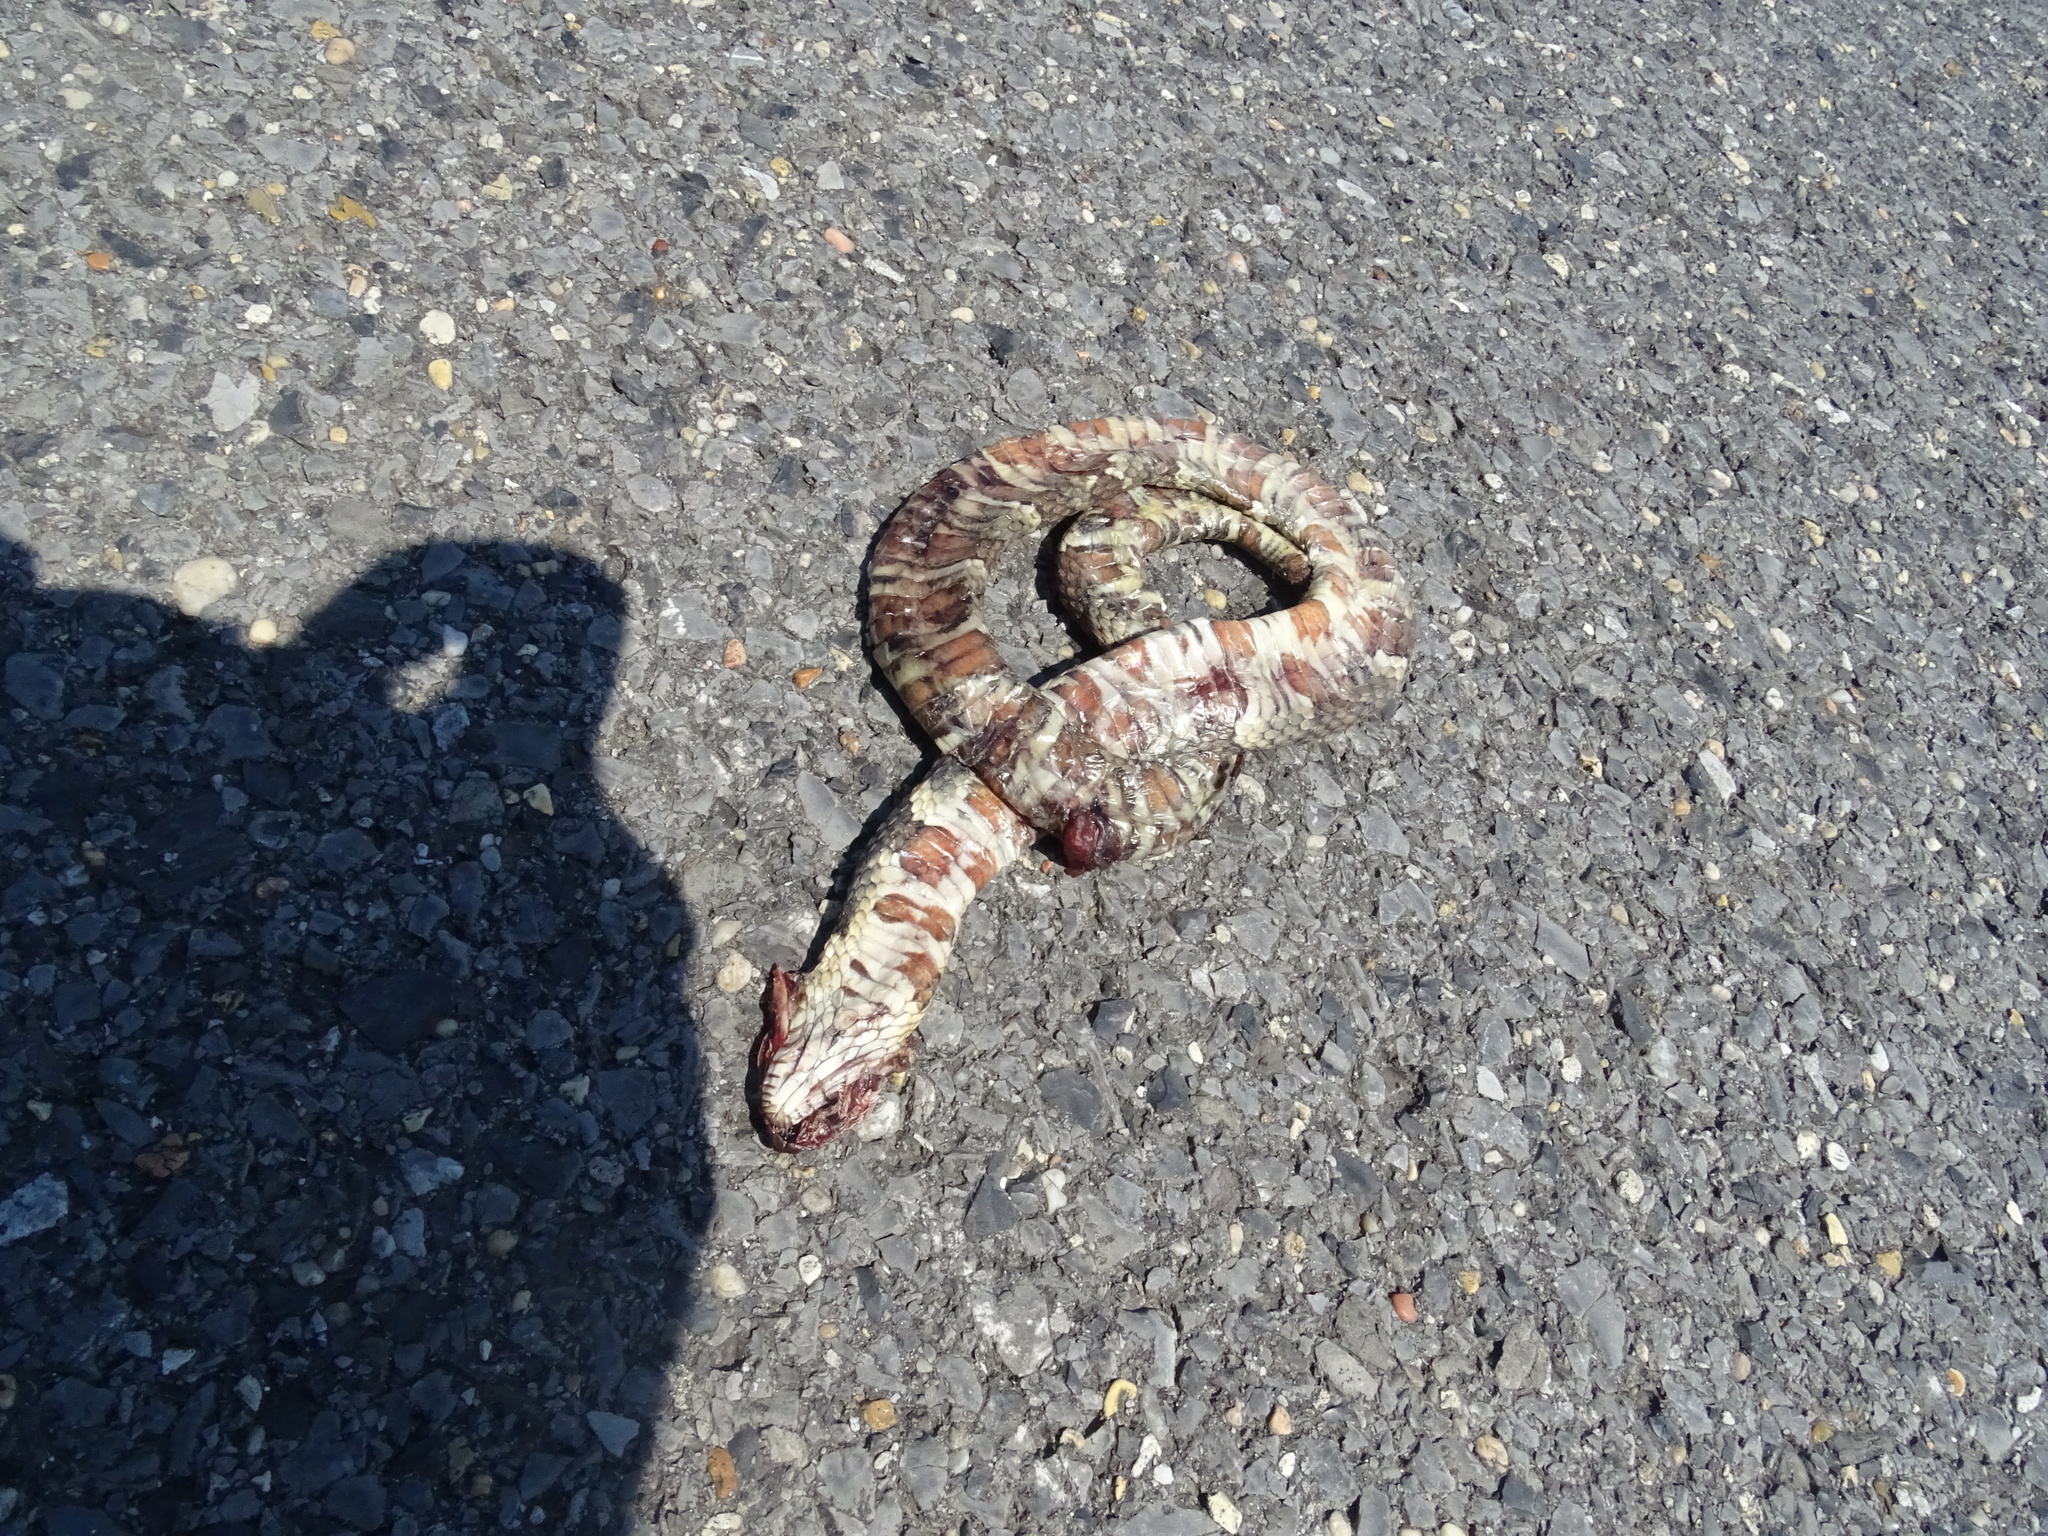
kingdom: Animalia
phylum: Chordata
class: Squamata
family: Colubridae
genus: Nerodia
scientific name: Nerodia fasciata
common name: Southern water snake
